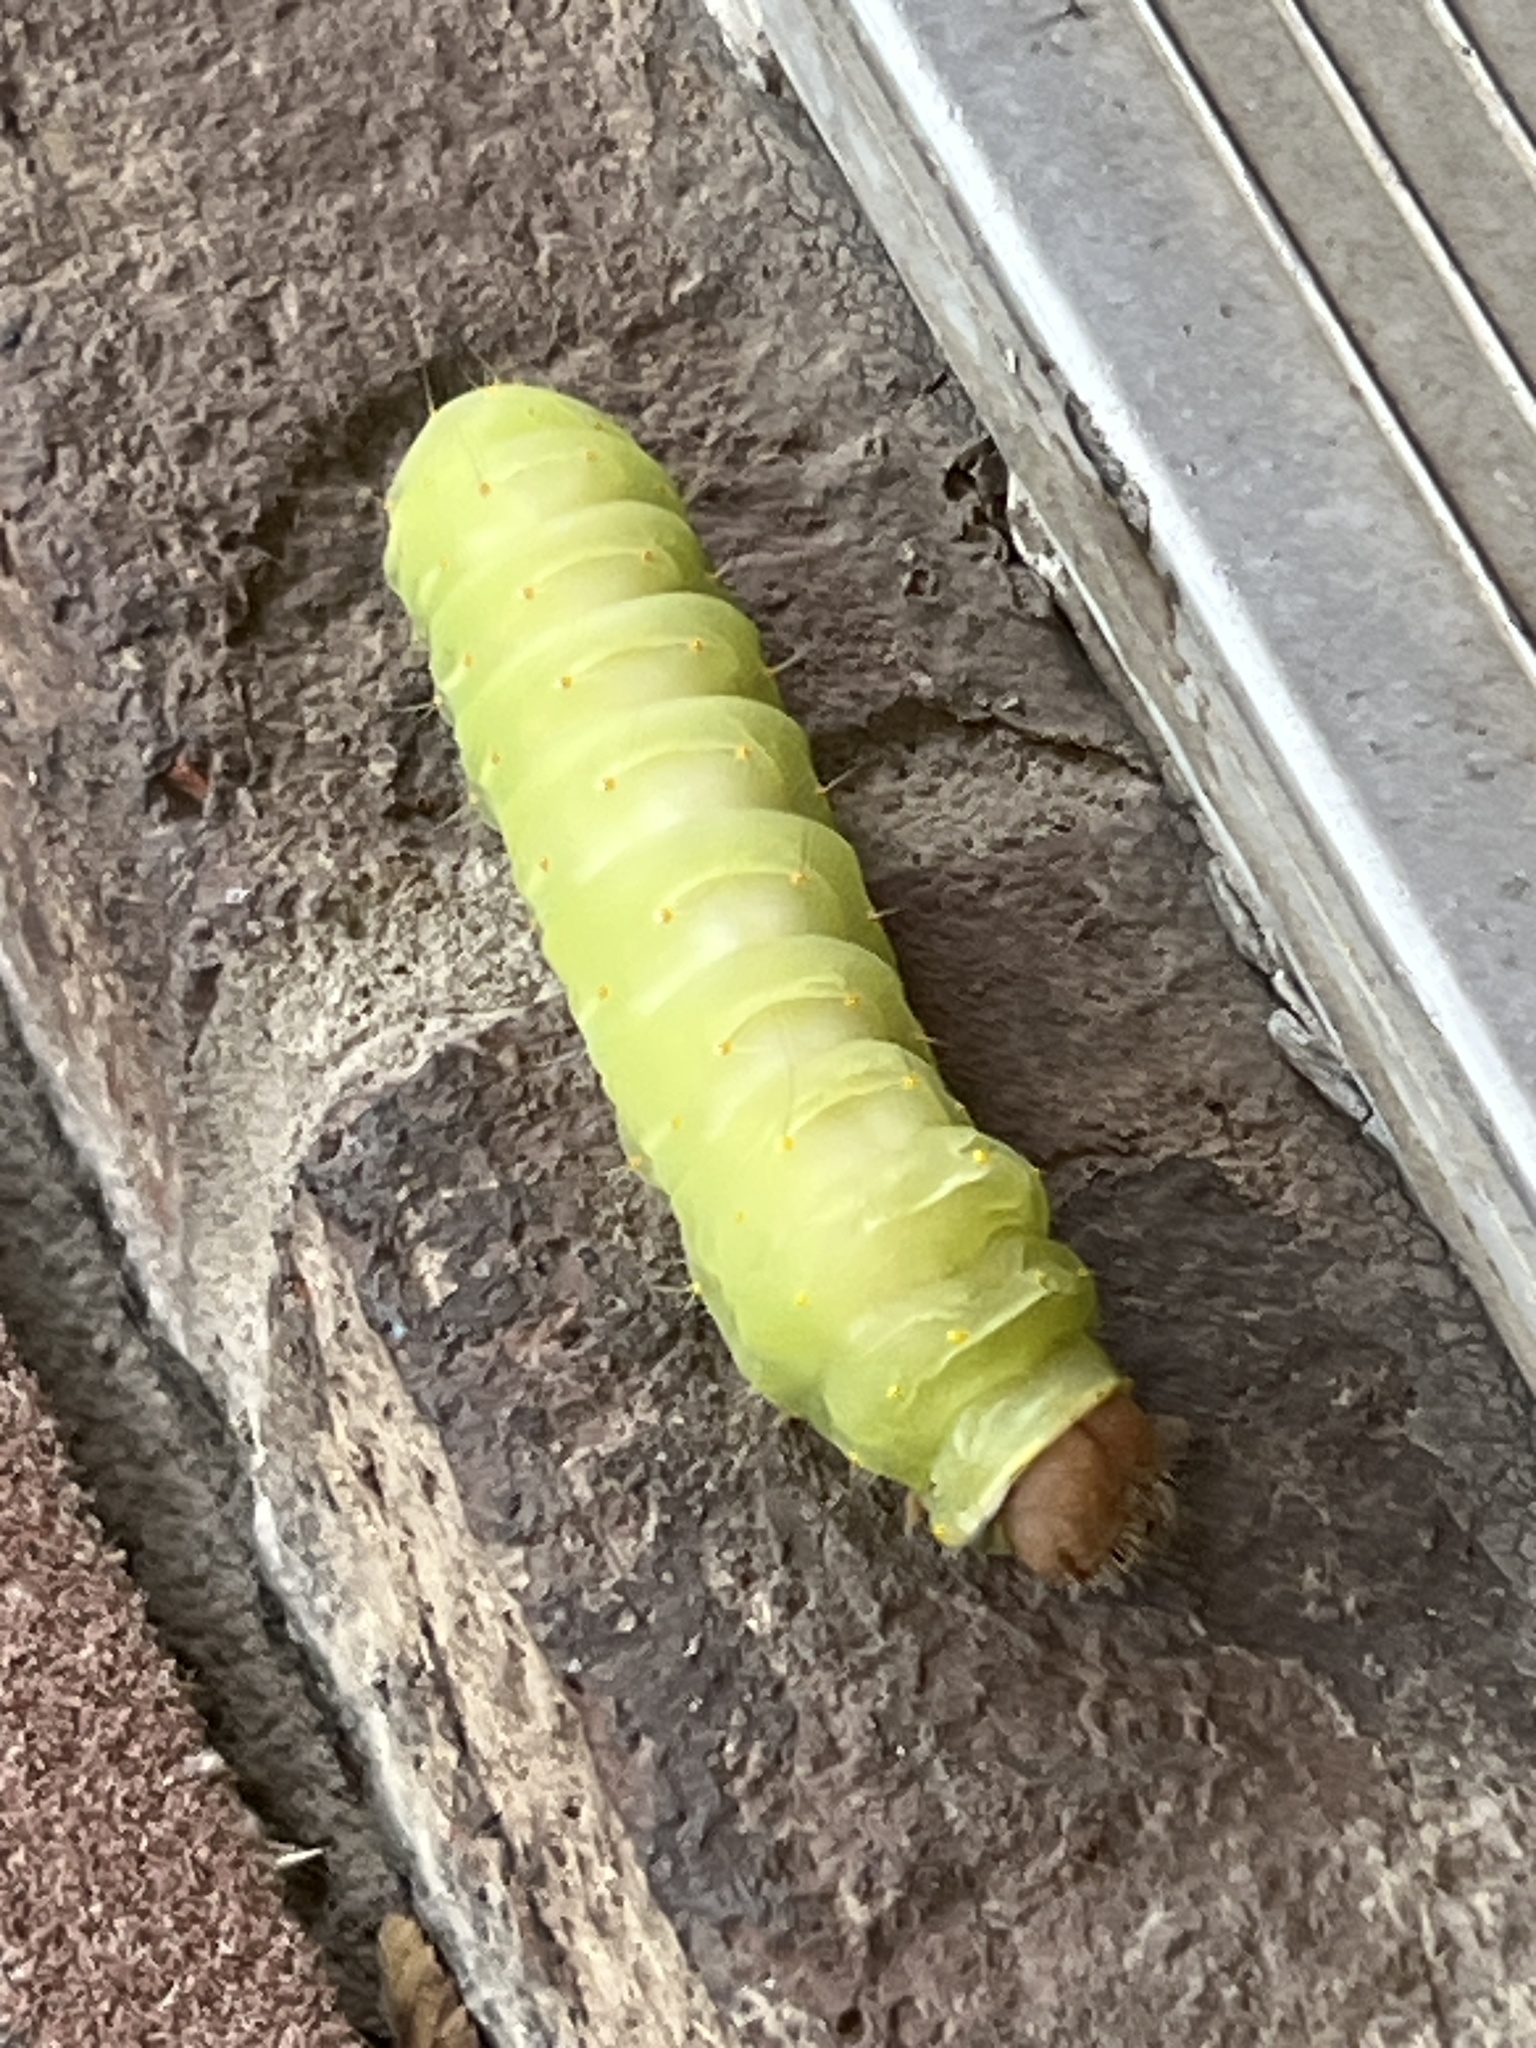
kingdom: Animalia
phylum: Arthropoda
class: Insecta
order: Lepidoptera
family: Saturniidae
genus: Antheraea
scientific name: Antheraea polyphemus
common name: Polyphemus moth
